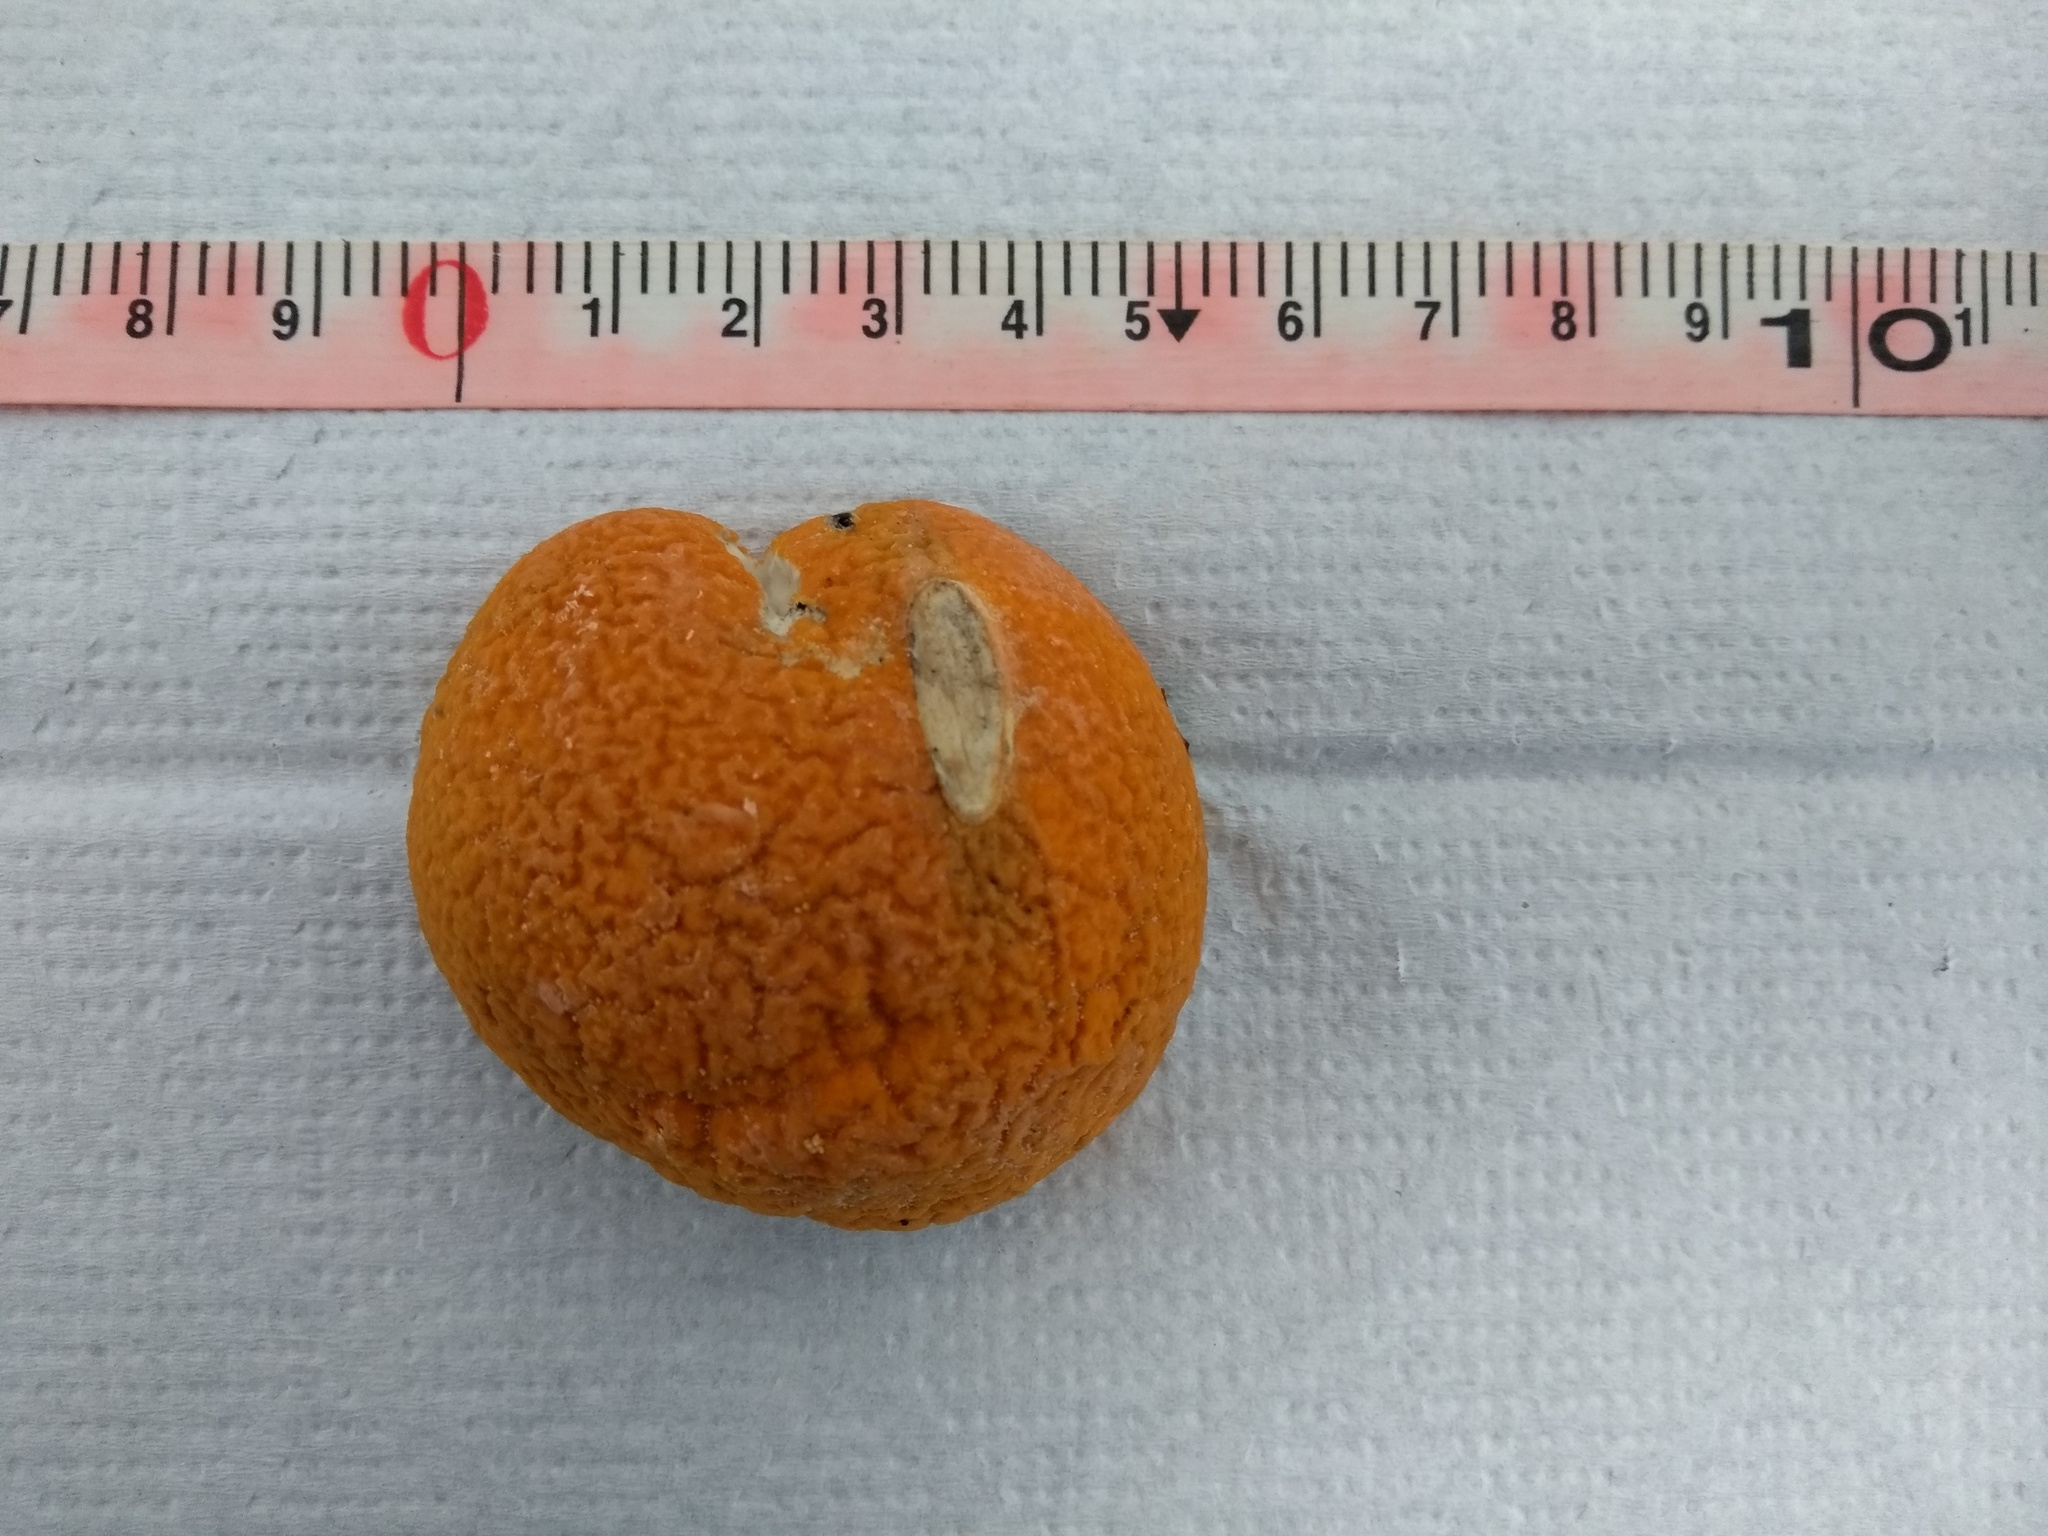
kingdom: Fungi
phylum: Ascomycota
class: Sordariomycetes
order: Hypocreales
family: Bionectriaceae
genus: Mycocitrus
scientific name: Mycocitrus aurantium
